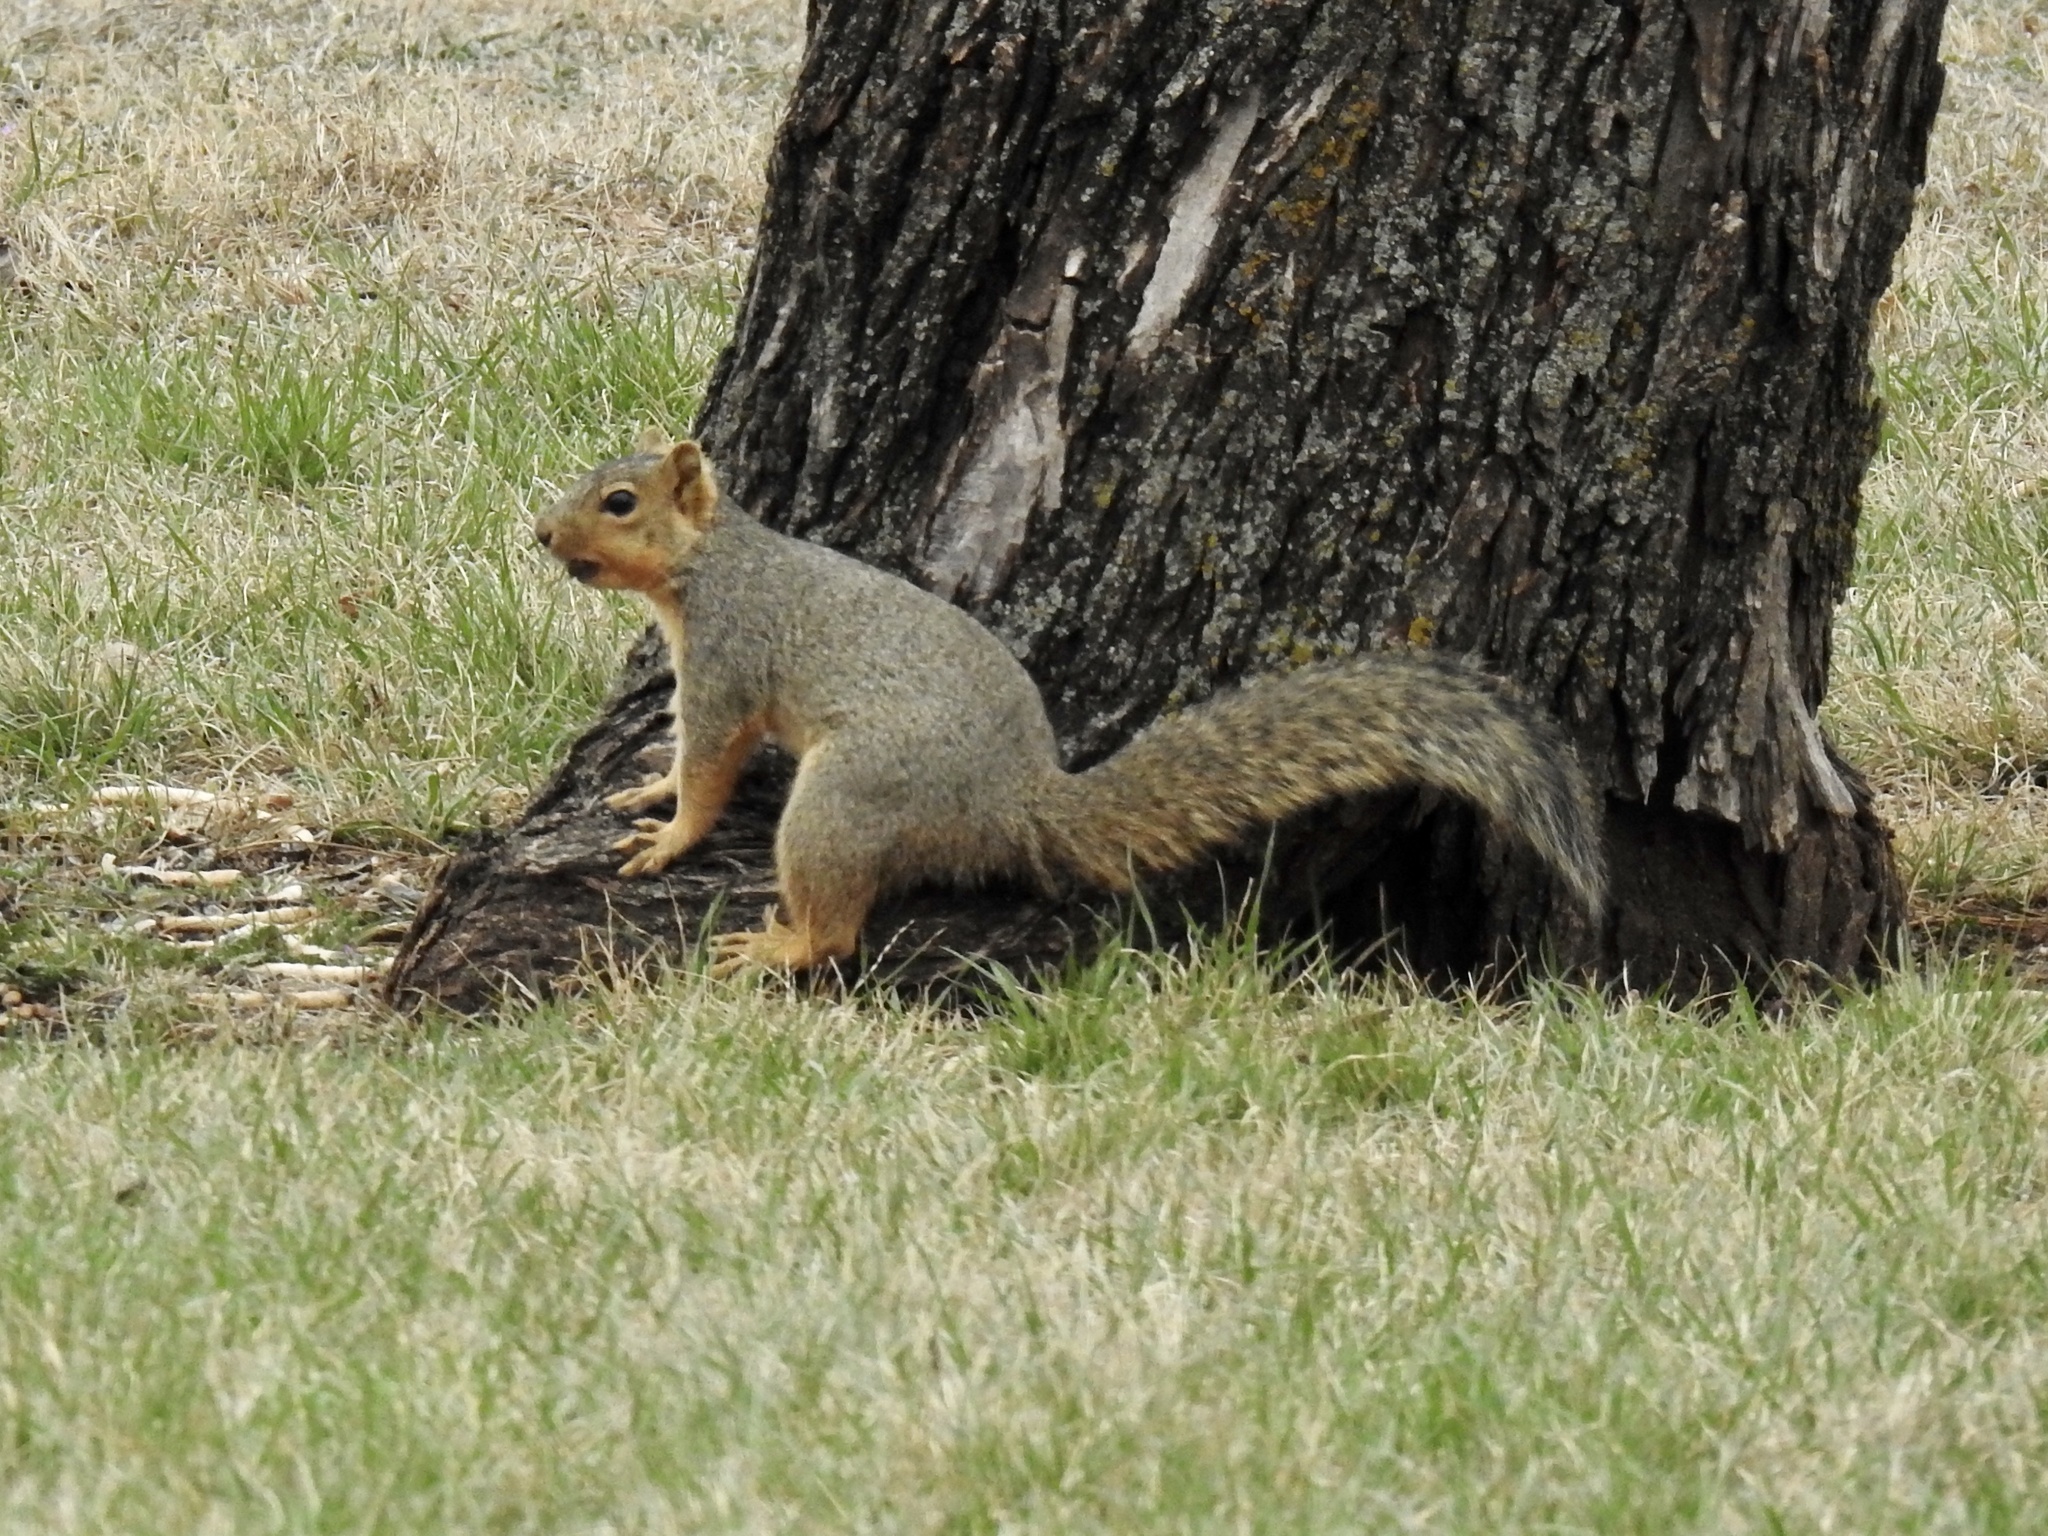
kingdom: Animalia
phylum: Chordata
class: Mammalia
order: Rodentia
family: Sciuridae
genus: Sciurus
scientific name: Sciurus niger
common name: Fox squirrel
